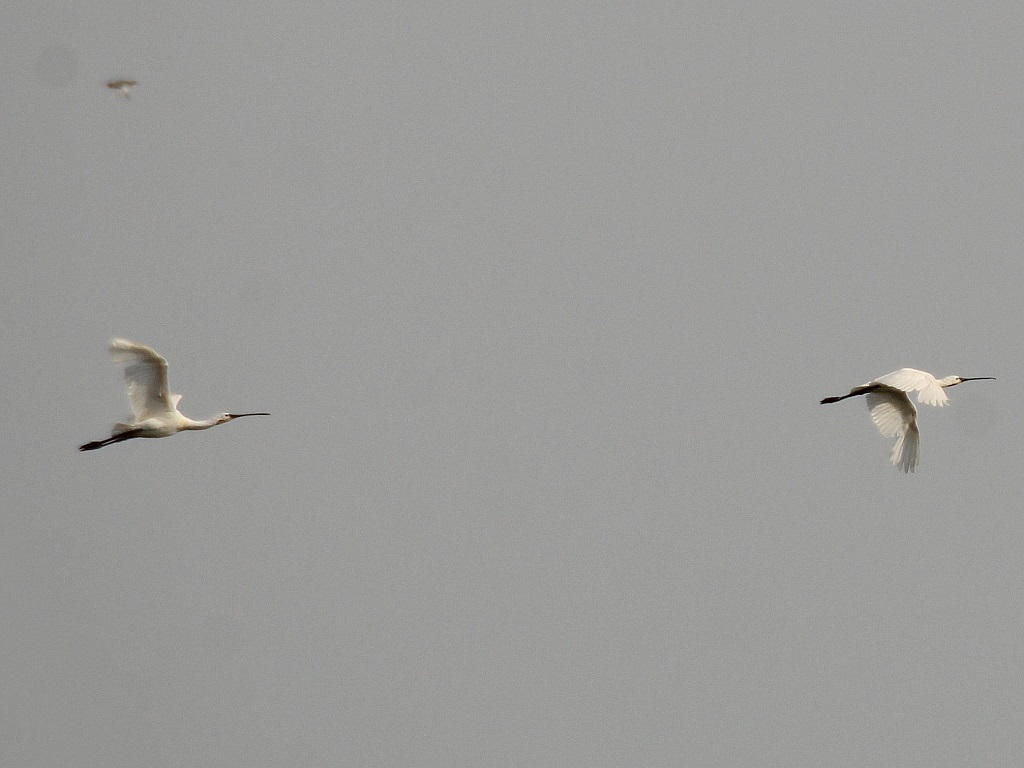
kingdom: Animalia
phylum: Chordata
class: Aves
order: Pelecaniformes
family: Threskiornithidae
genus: Platalea
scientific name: Platalea leucorodia
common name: Eurasian spoonbill
